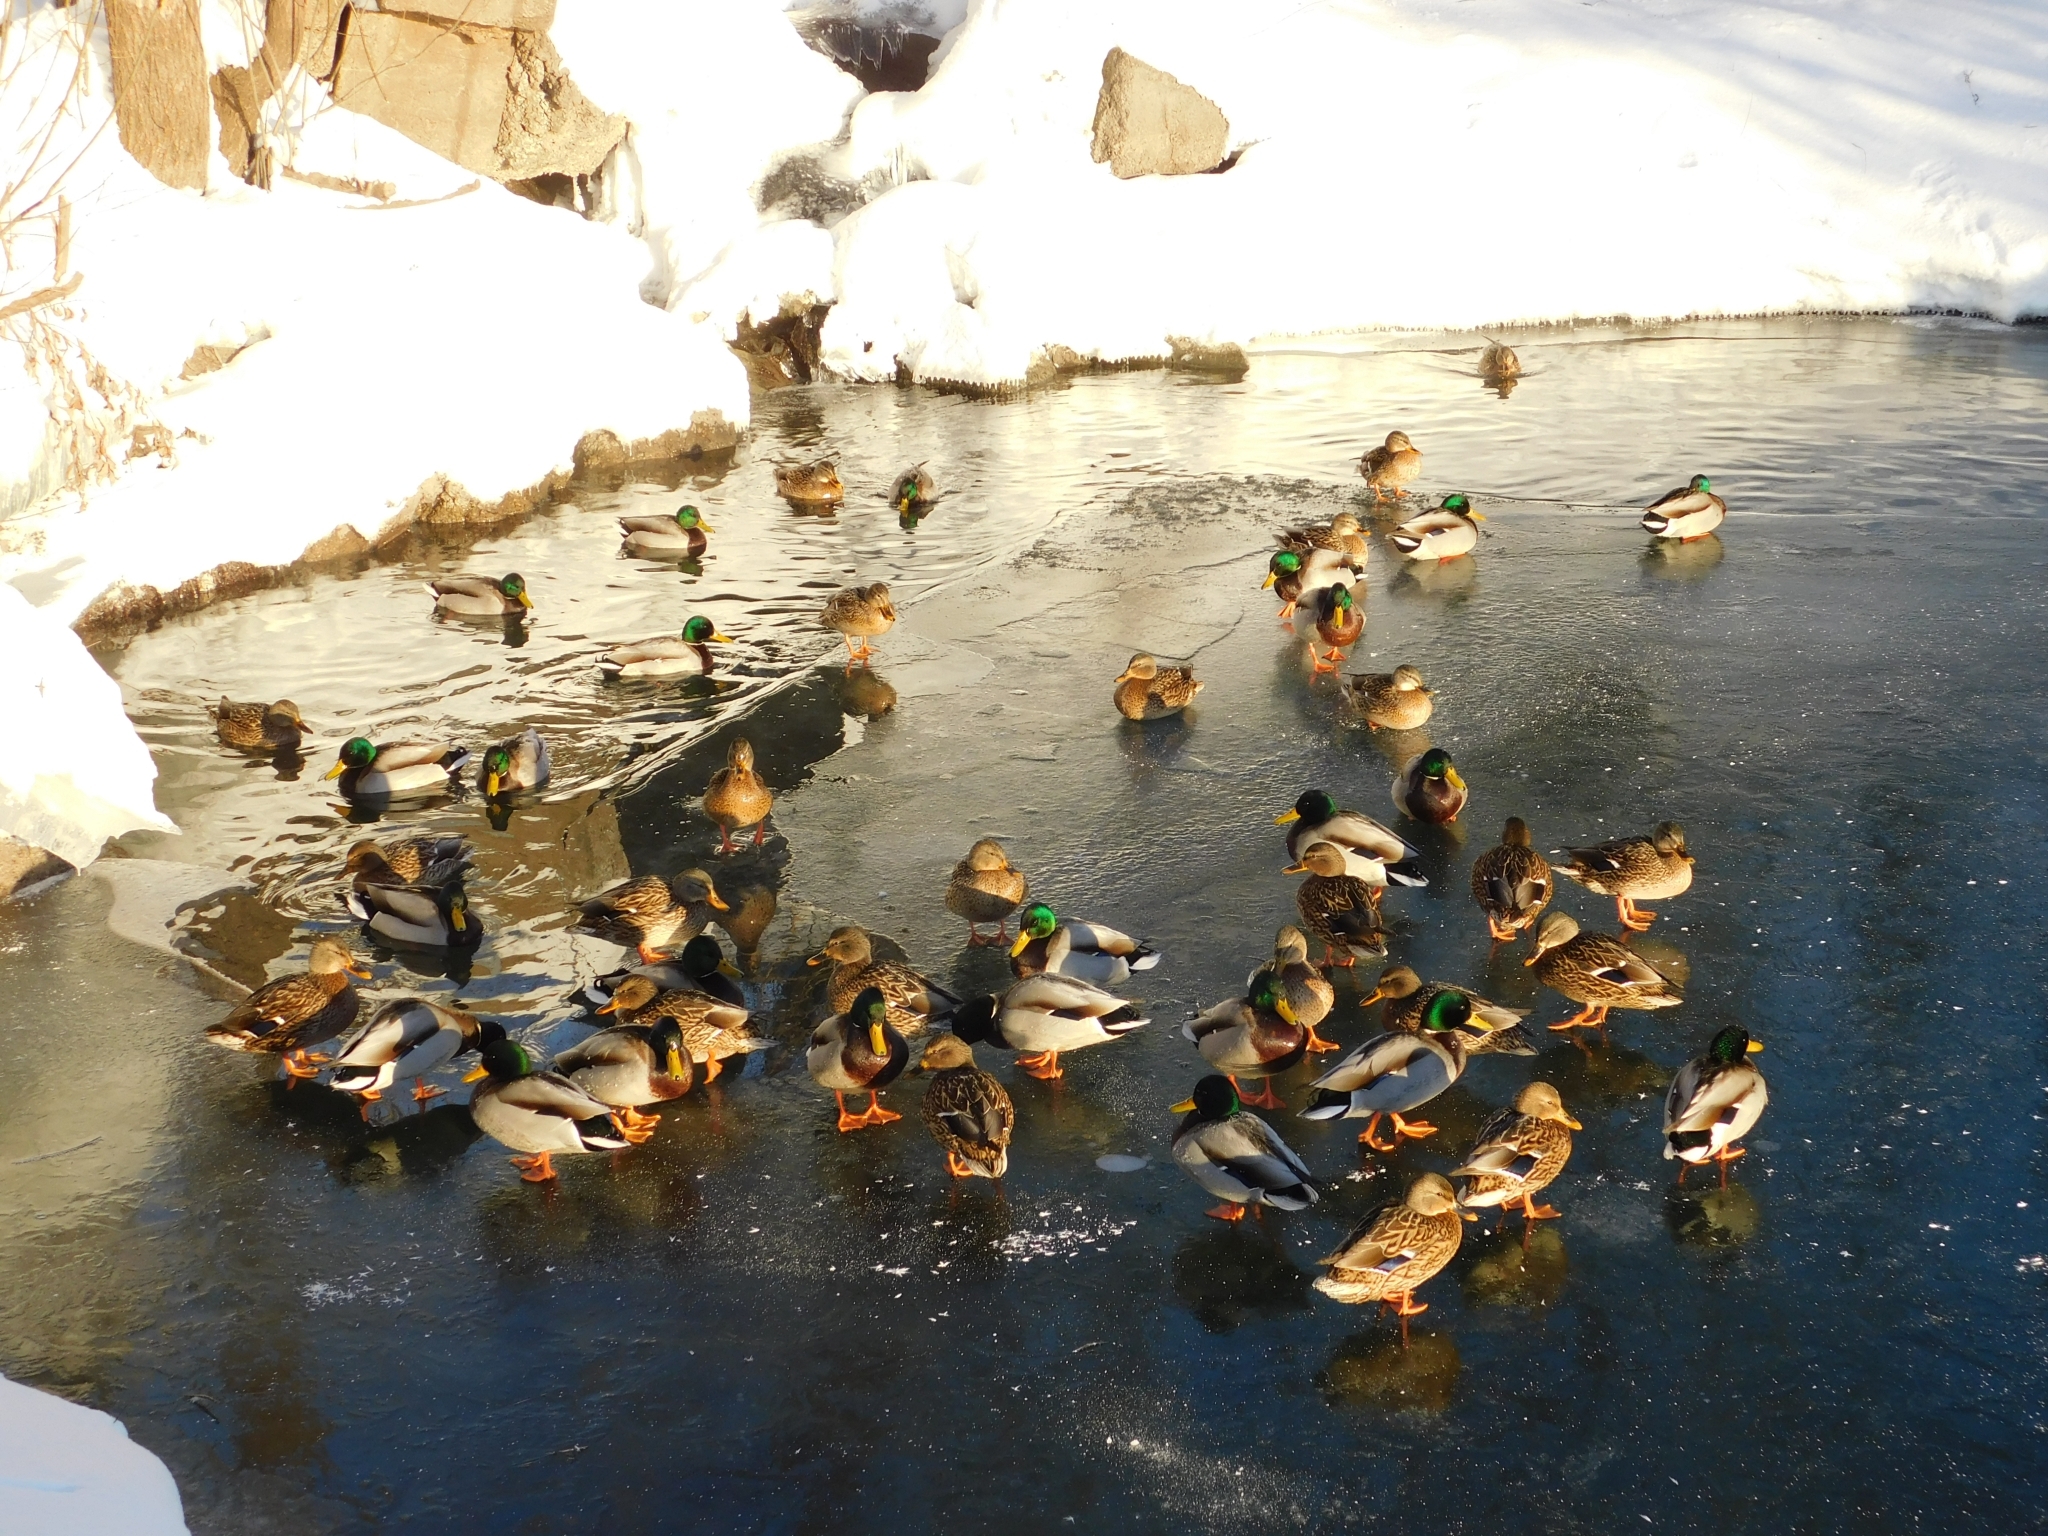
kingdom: Animalia
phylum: Chordata
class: Aves
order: Anseriformes
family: Anatidae
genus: Anas
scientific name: Anas platyrhynchos
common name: Mallard
